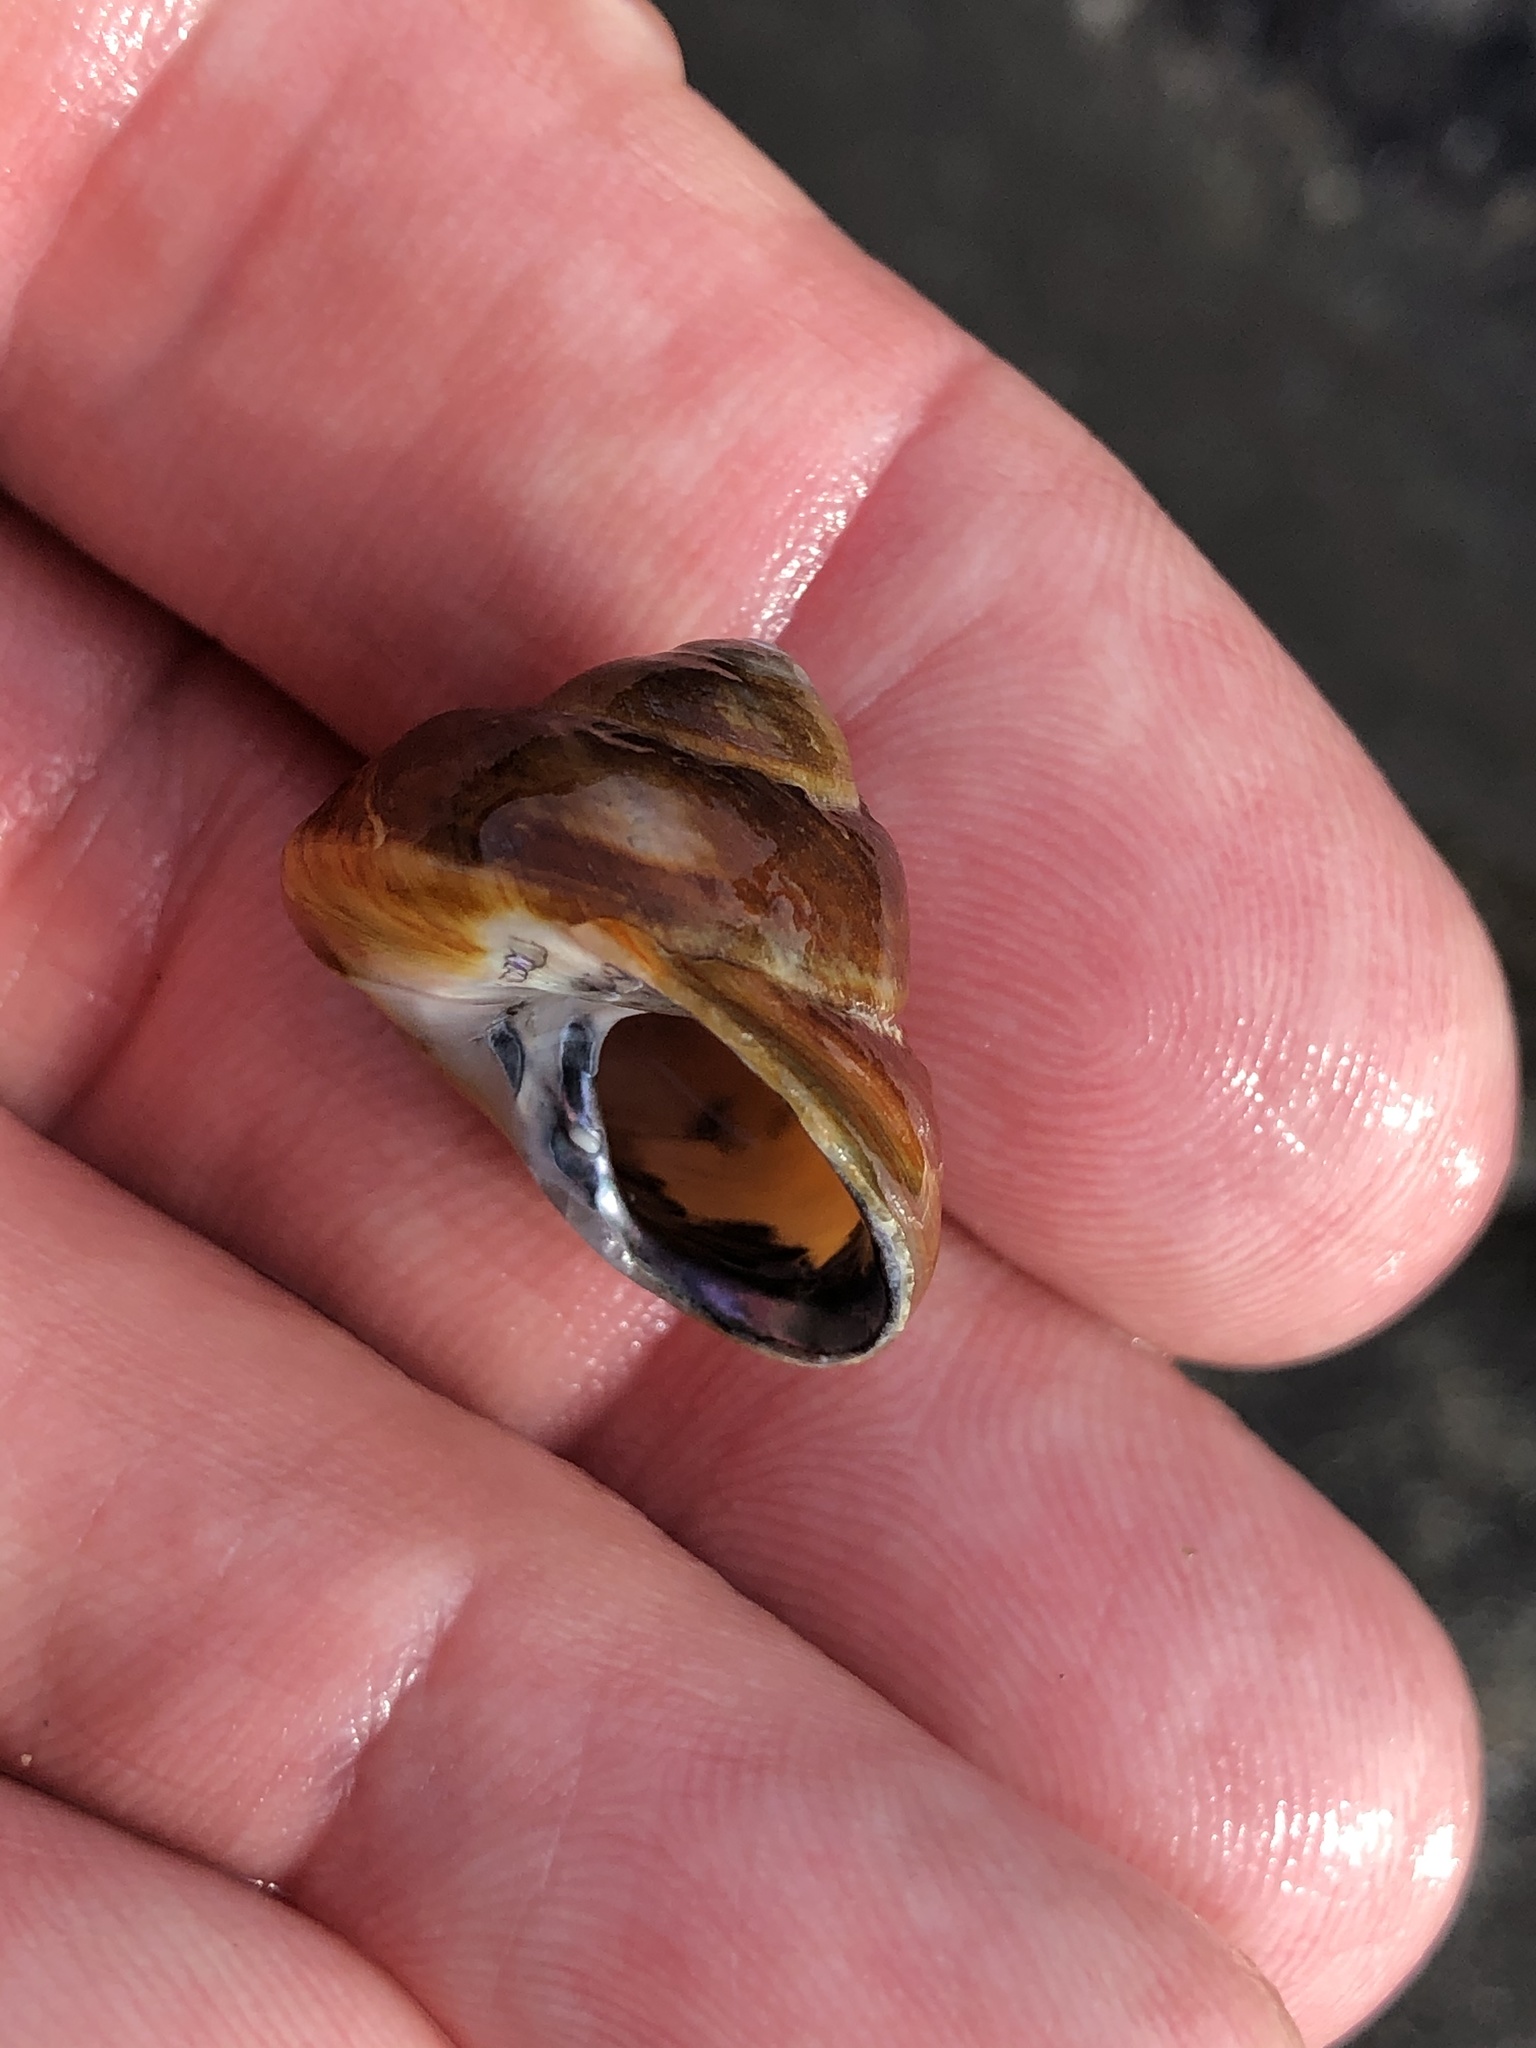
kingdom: Animalia
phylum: Mollusca
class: Gastropoda
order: Trochida
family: Tegulidae
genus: Tegula
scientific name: Tegula brunnea
